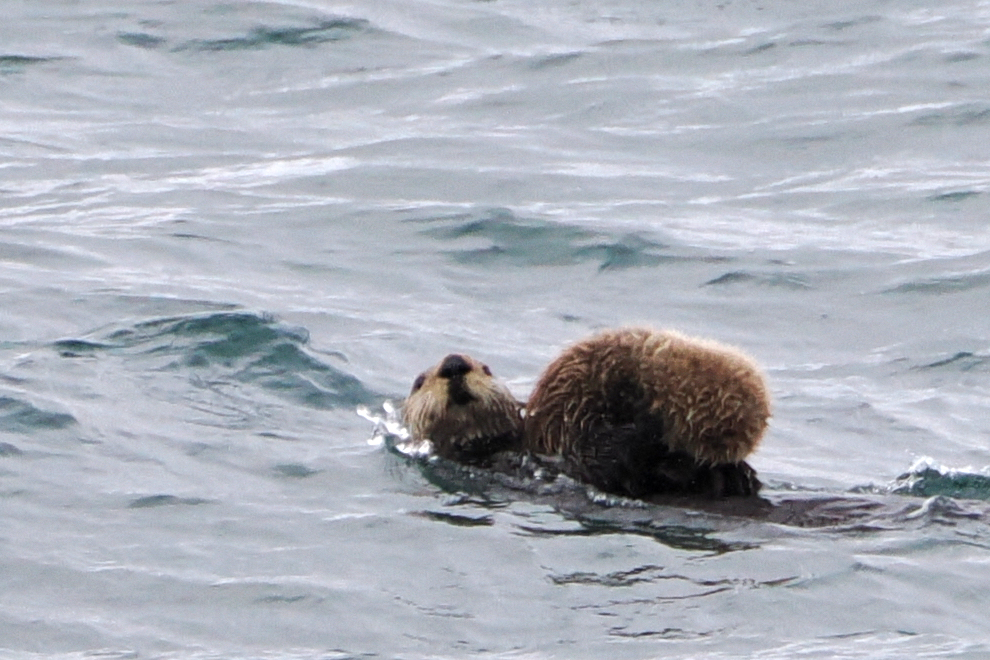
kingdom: Animalia
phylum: Chordata
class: Mammalia
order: Carnivora
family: Mustelidae
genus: Enhydra
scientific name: Enhydra lutris
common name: Sea otter
